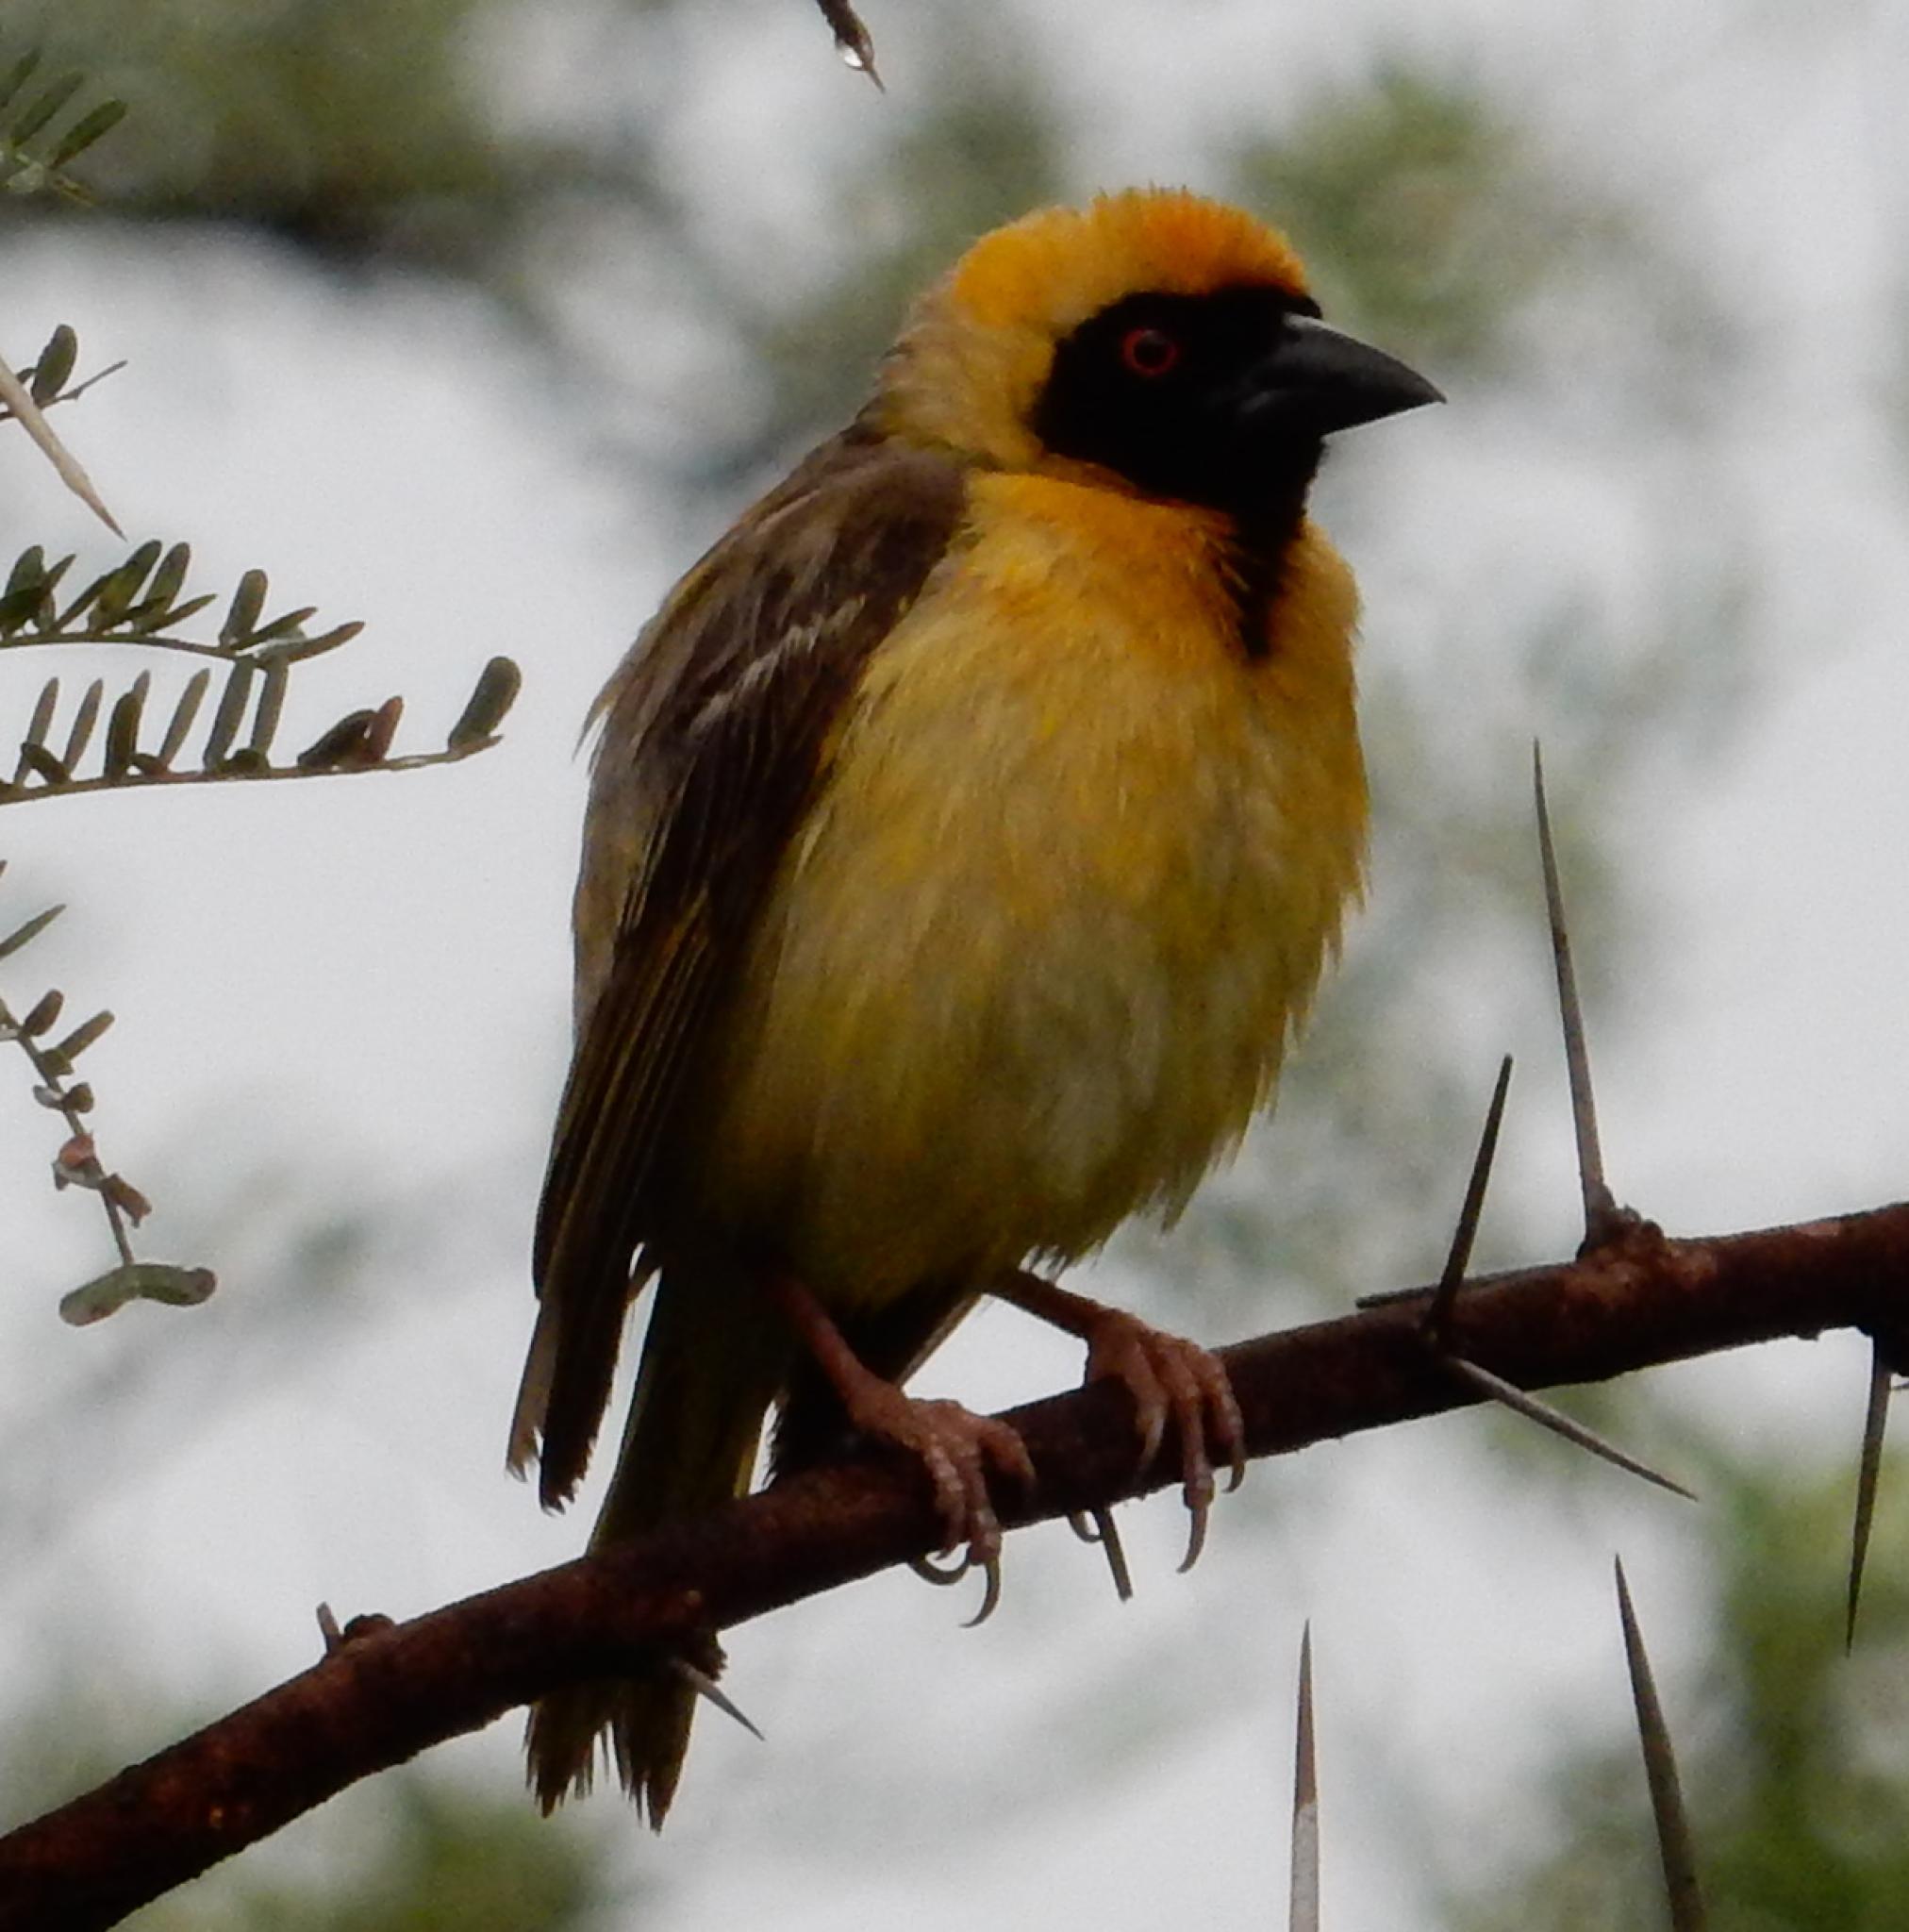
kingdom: Animalia
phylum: Chordata
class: Aves
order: Passeriformes
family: Ploceidae
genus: Ploceus
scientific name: Ploceus velatus
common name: Southern masked weaver
